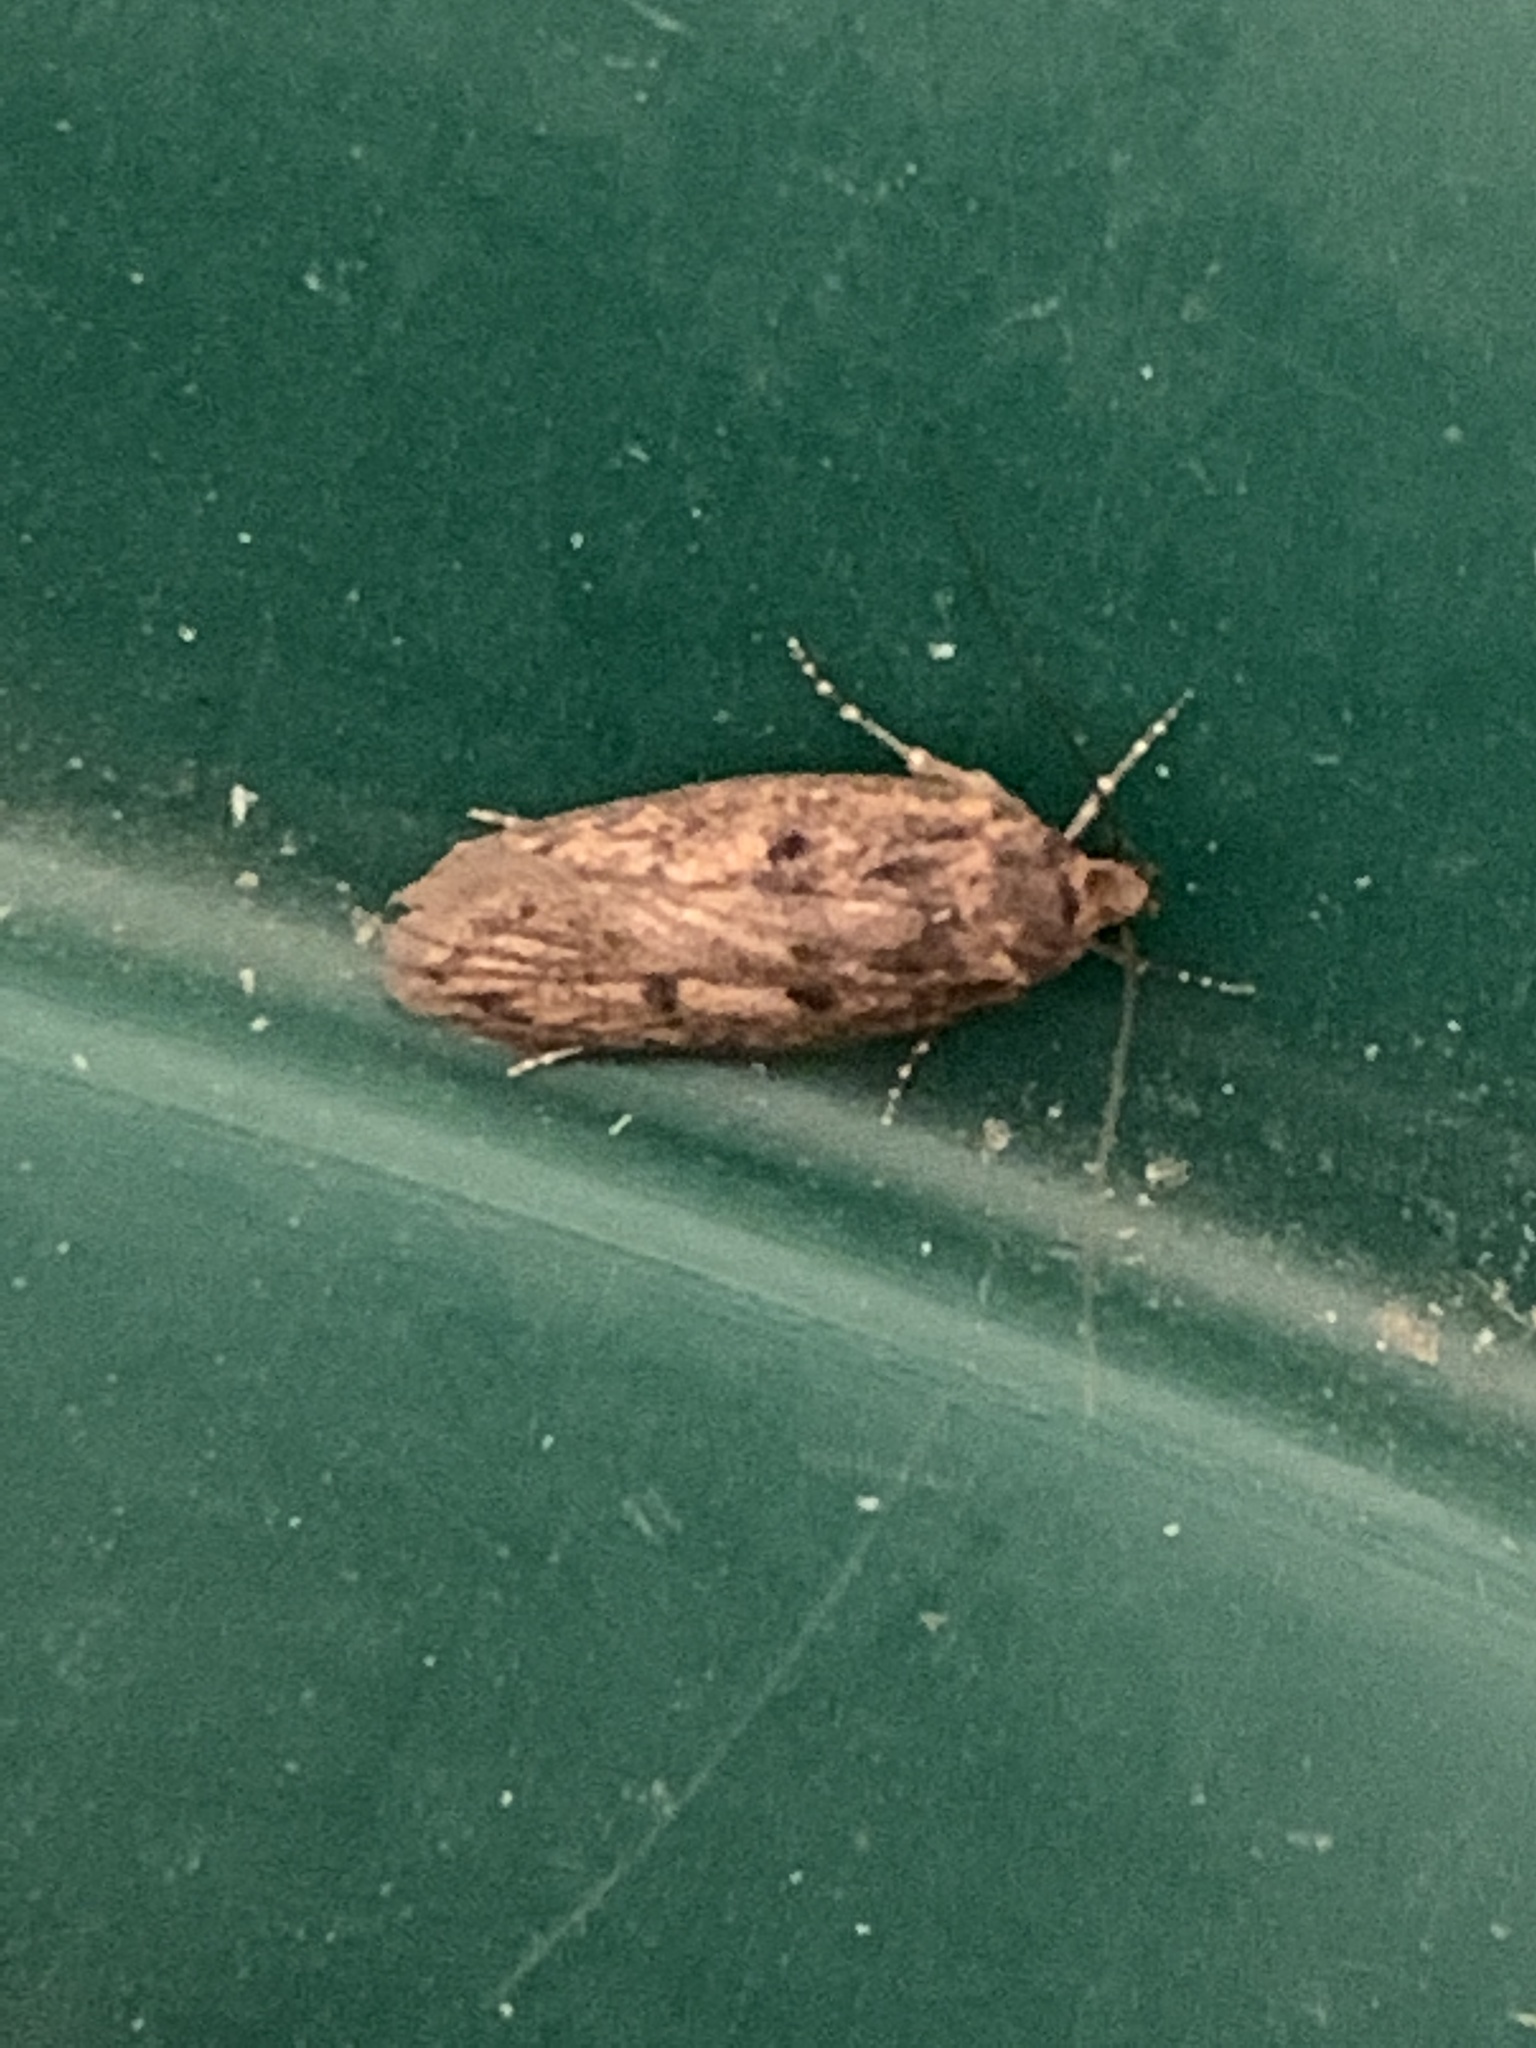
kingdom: Animalia
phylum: Arthropoda
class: Insecta
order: Lepidoptera
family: Oecophoridae
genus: Hofmannophila
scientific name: Hofmannophila pseudospretella
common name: Brown house moth
